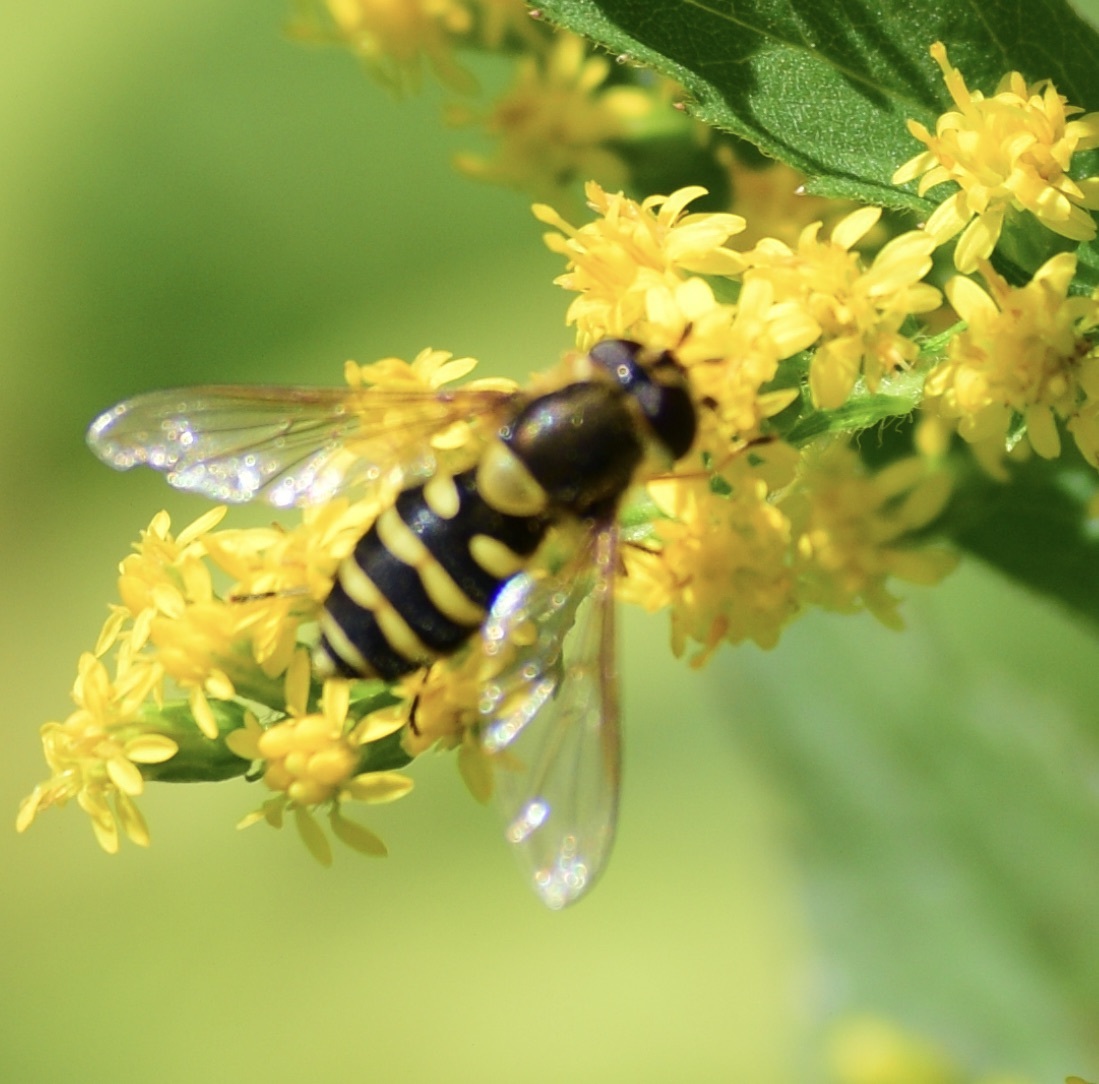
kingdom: Animalia
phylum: Arthropoda
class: Insecta
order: Diptera
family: Syrphidae
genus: Syrphus
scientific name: Syrphus
